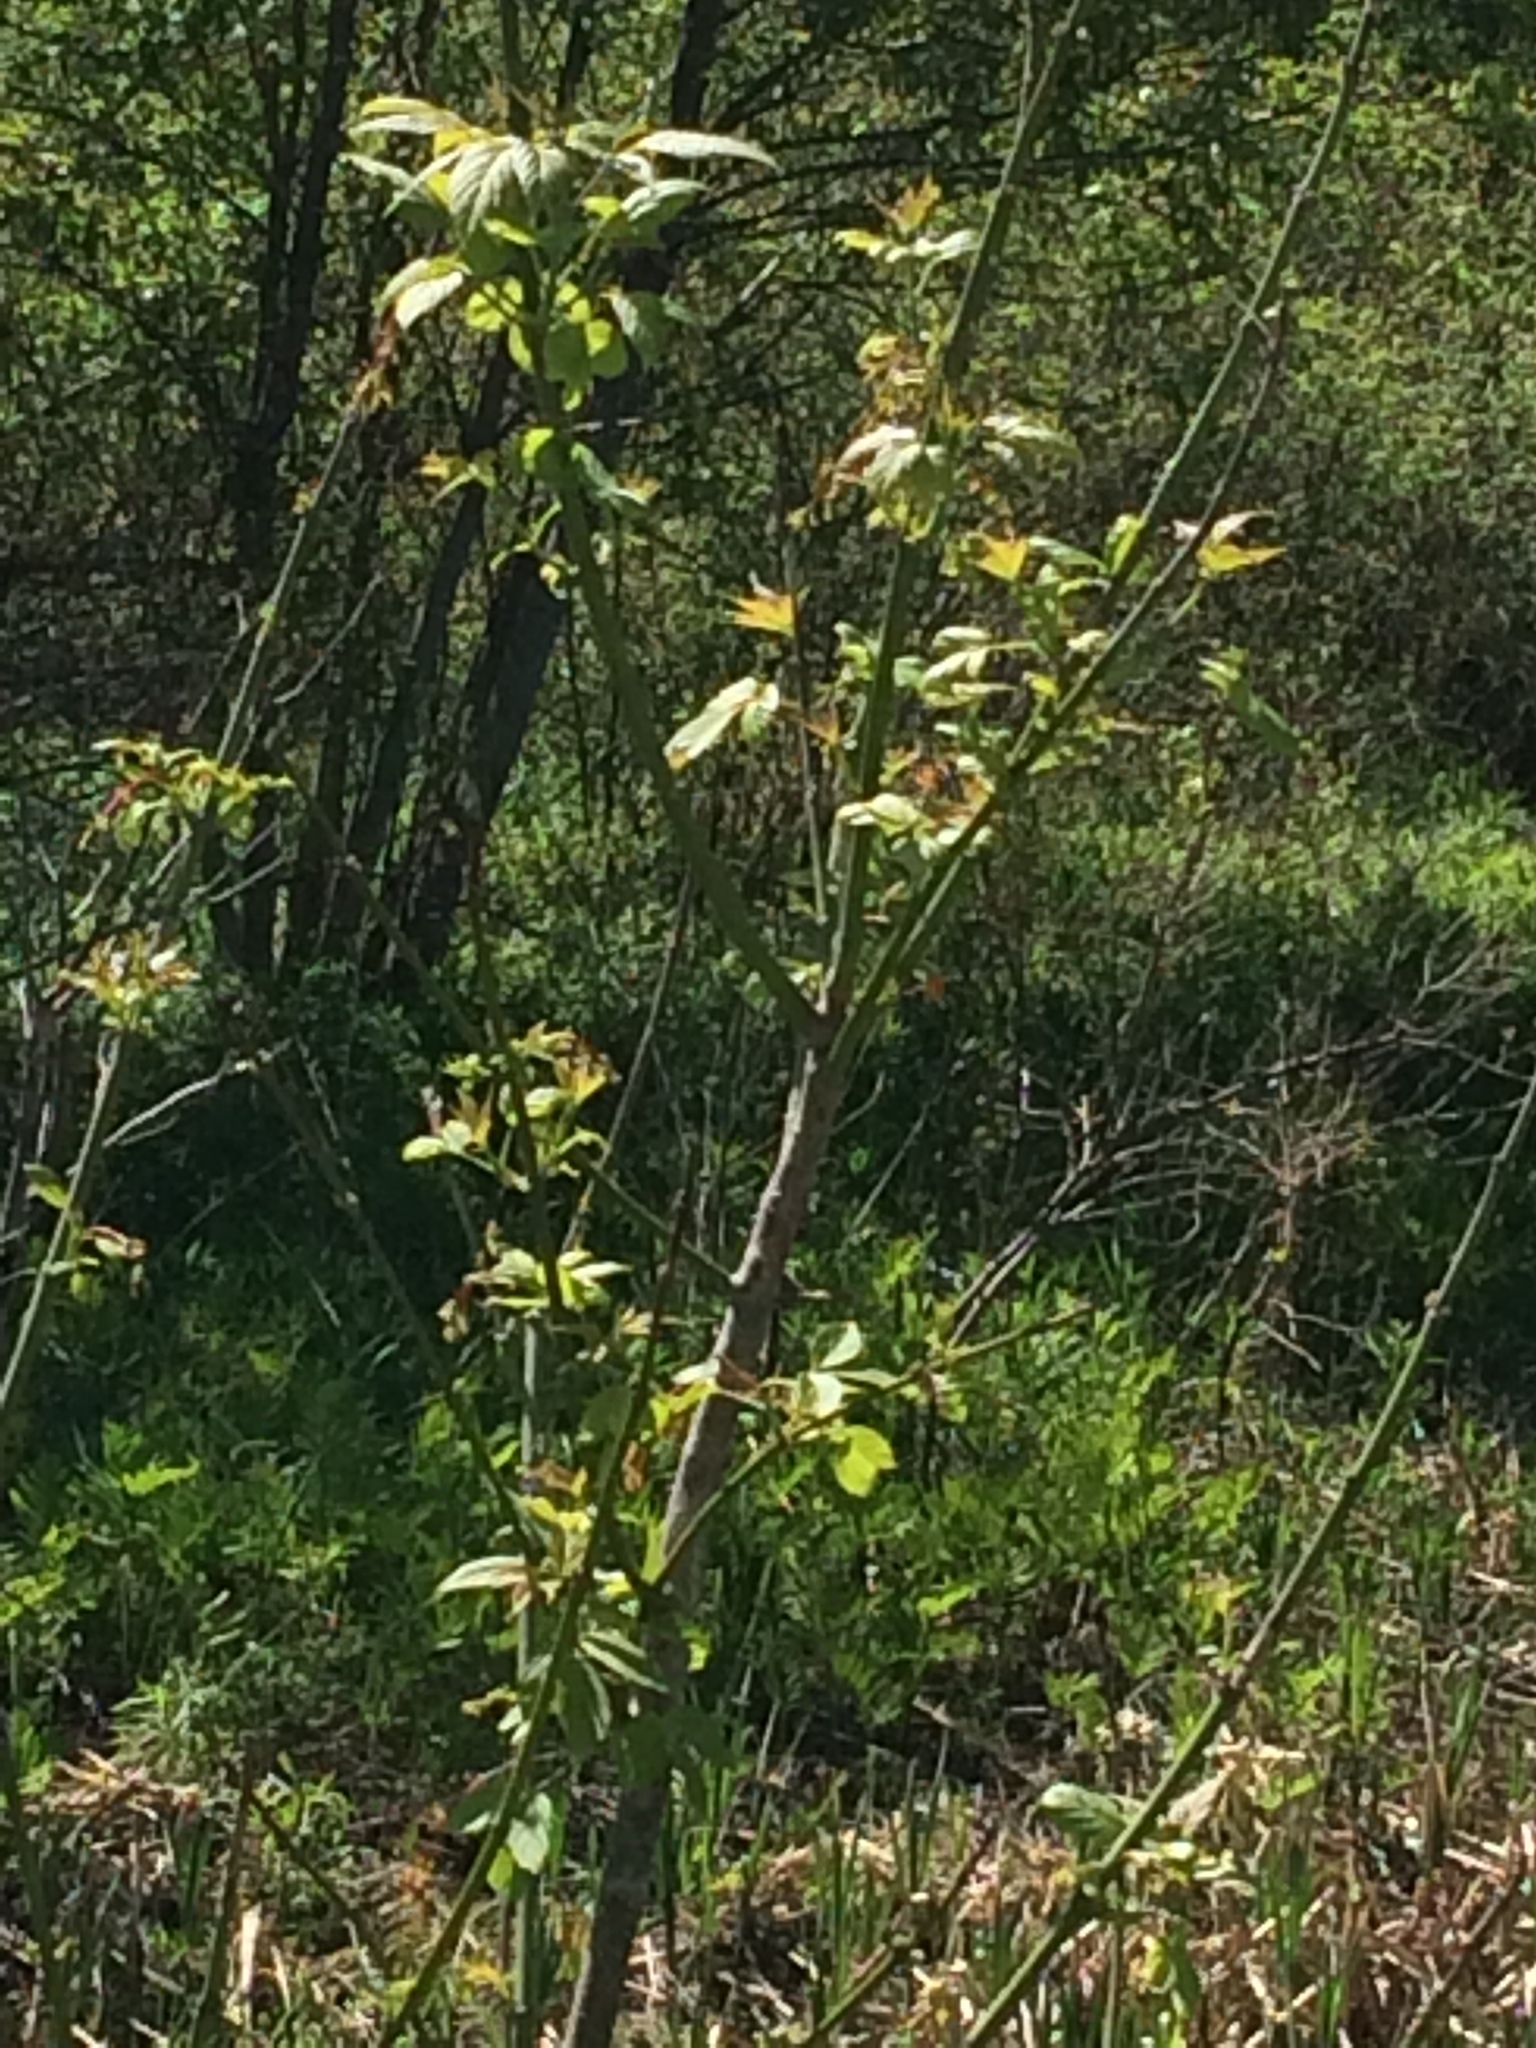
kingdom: Plantae
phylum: Tracheophyta
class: Magnoliopsida
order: Sapindales
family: Sapindaceae
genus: Acer
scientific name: Acer negundo
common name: Ashleaf maple
